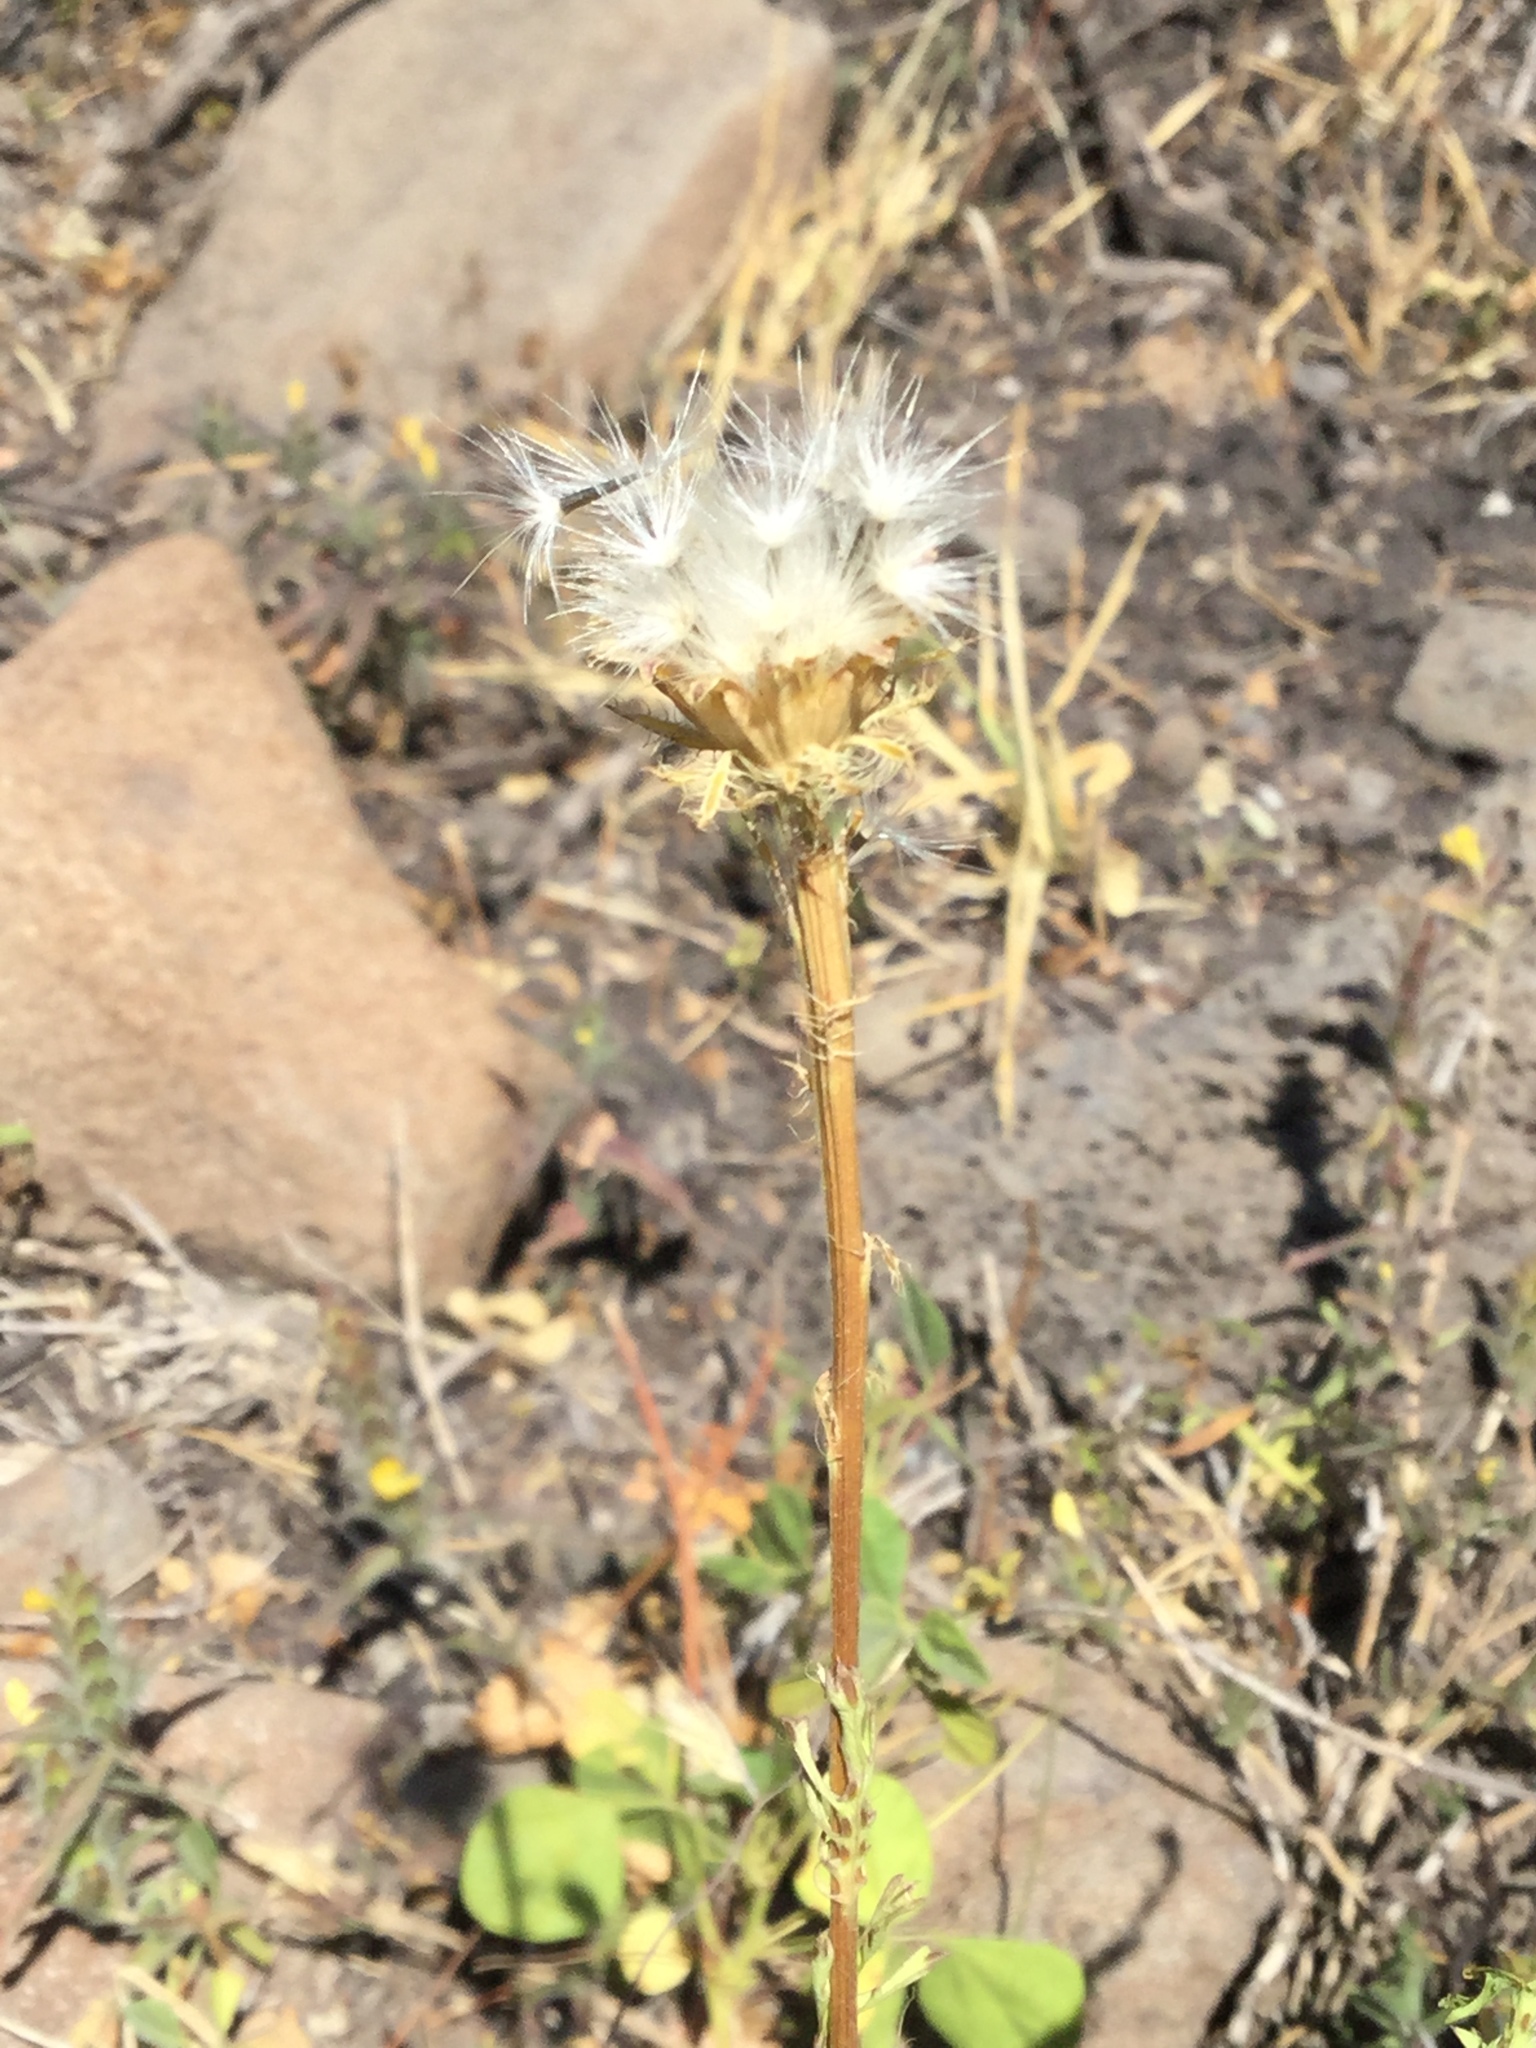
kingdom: Plantae
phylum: Tracheophyta
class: Magnoliopsida
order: Asterales
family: Asteraceae
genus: Adenophyllum
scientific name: Adenophyllum cancellatum
